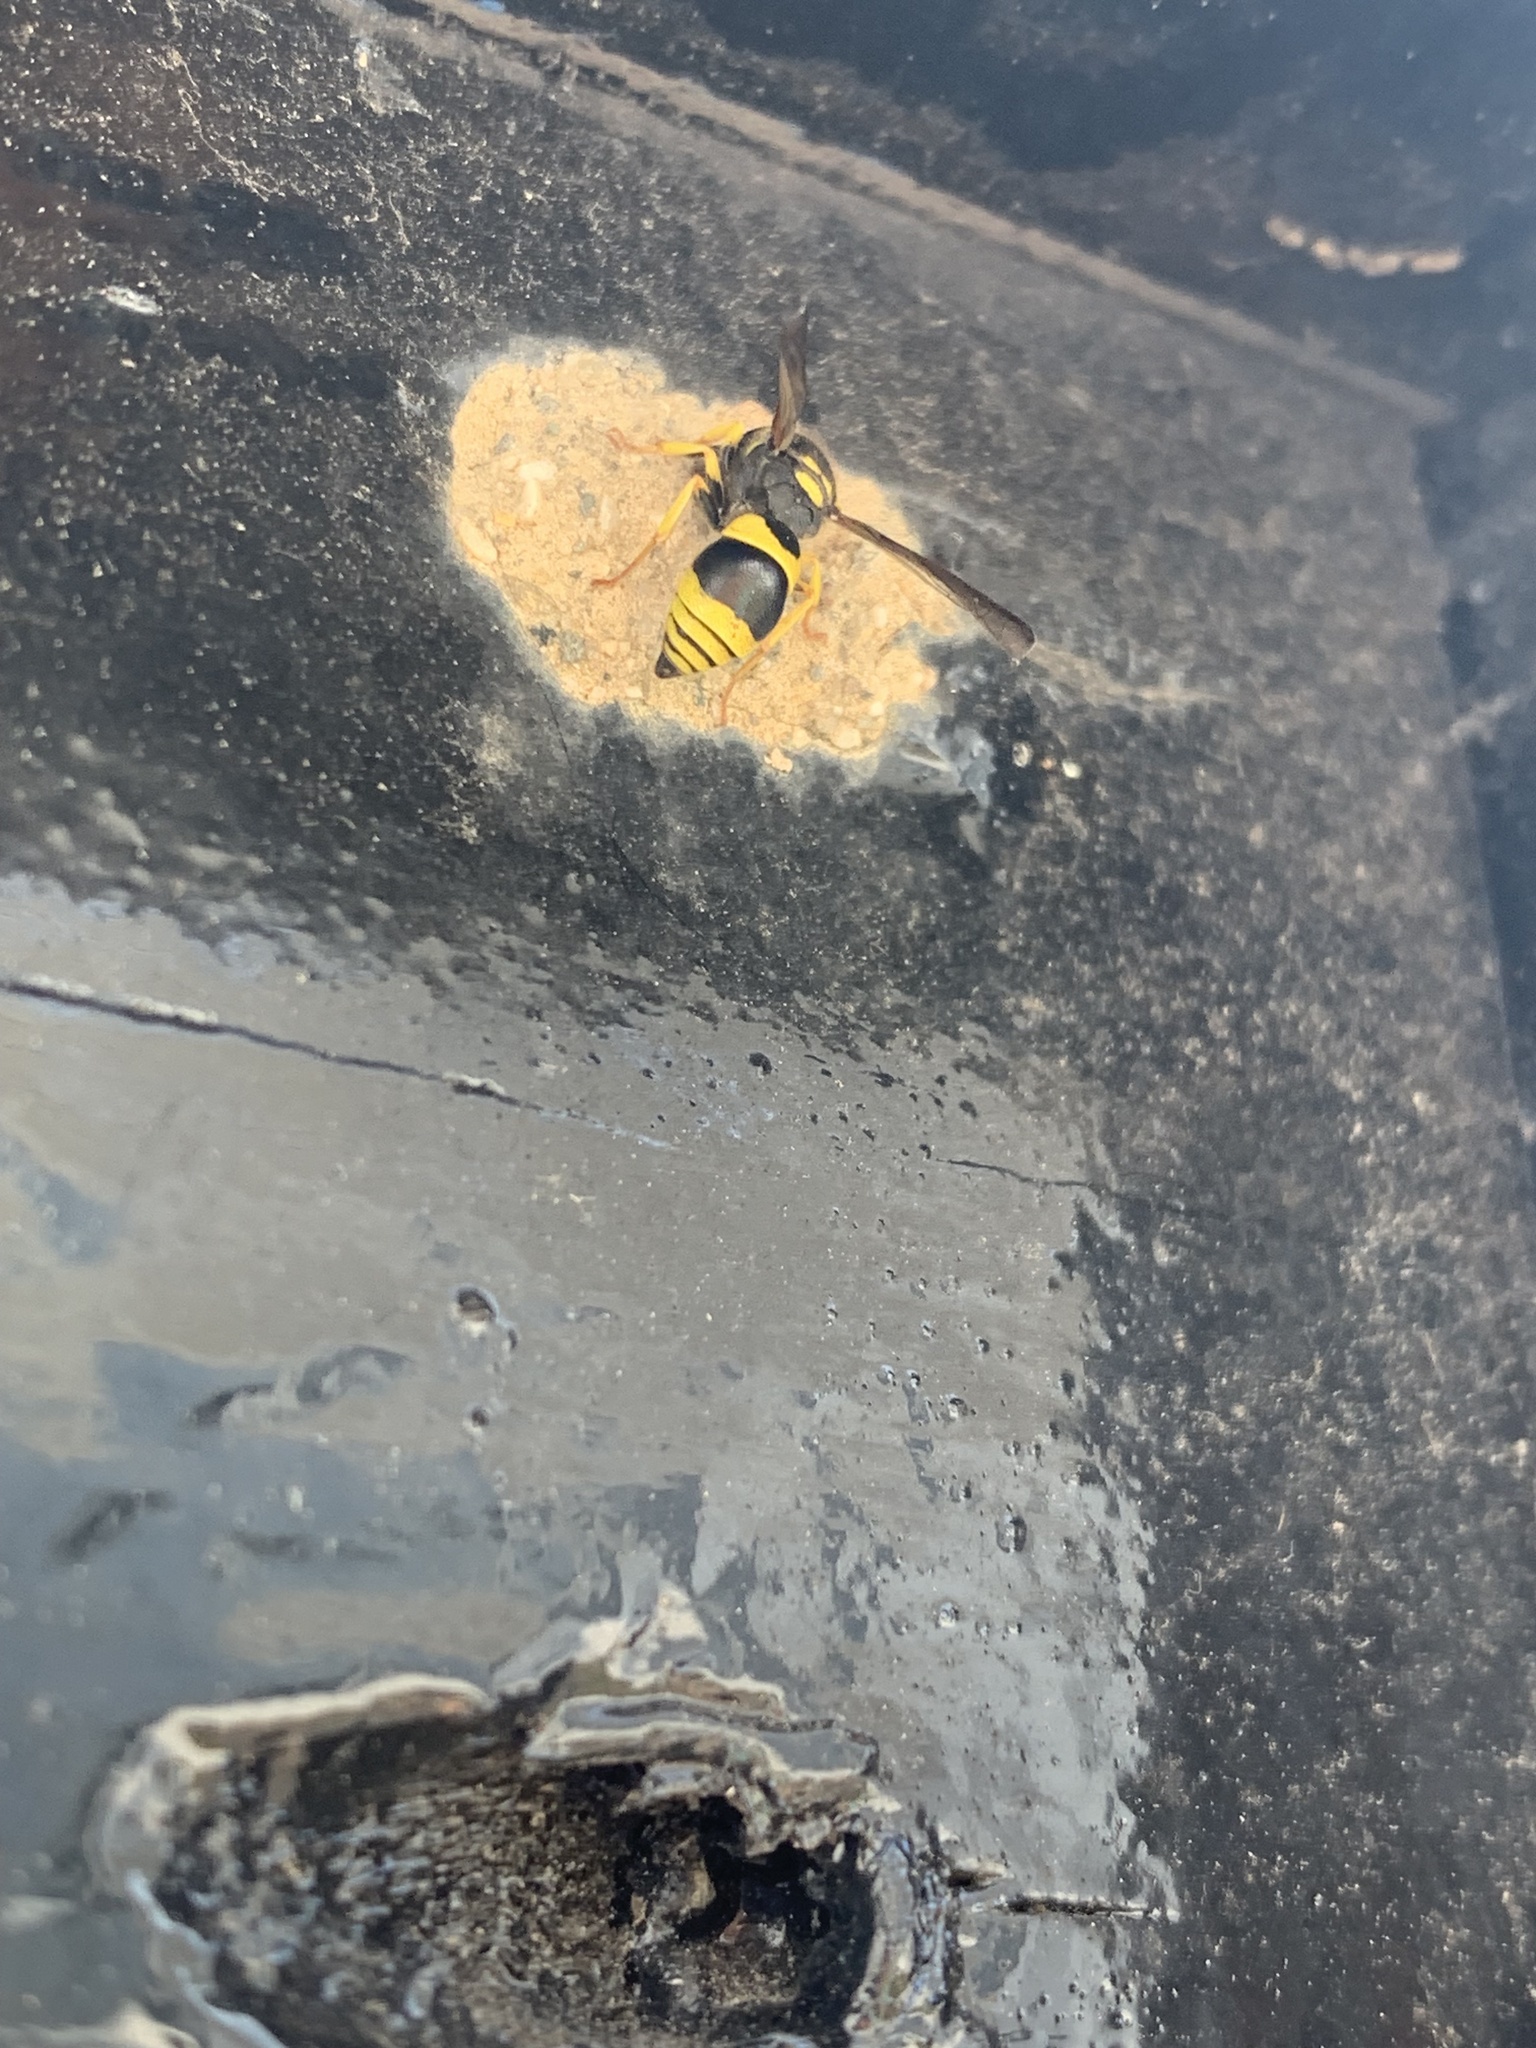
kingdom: Animalia
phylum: Arthropoda
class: Insecta
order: Hymenoptera
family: Vespidae
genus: Ancistrocerus
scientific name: Ancistrocerus gazella
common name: European tube wasp
